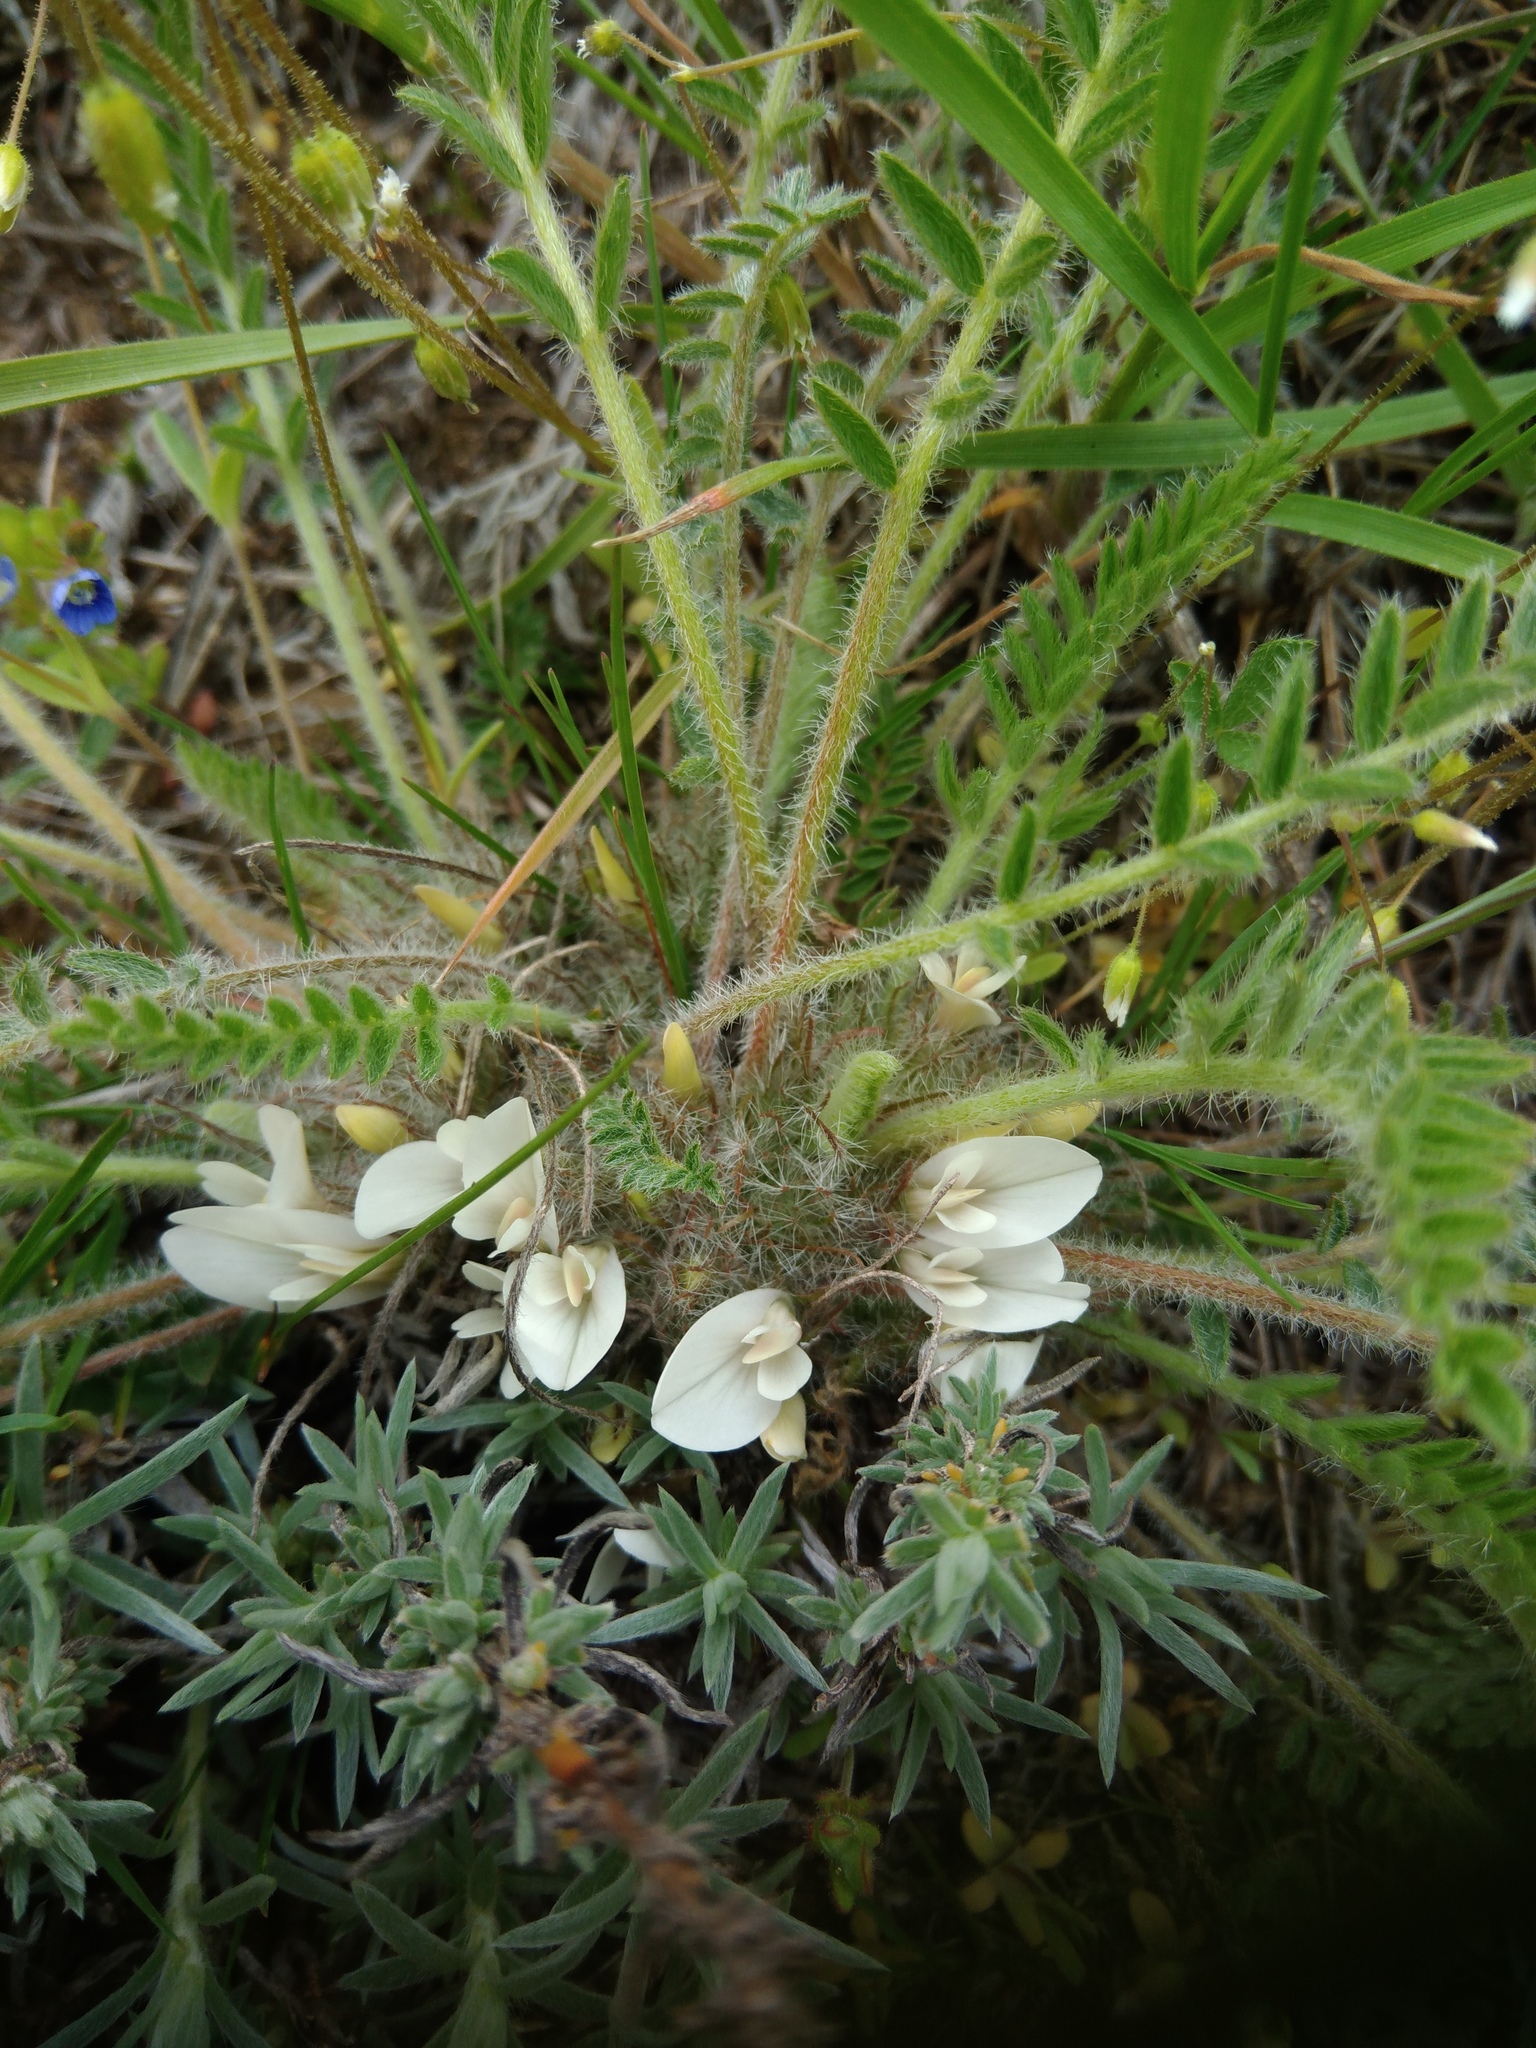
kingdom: Plantae
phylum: Tracheophyta
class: Magnoliopsida
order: Fabales
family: Fabaceae
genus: Astragalus
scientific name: Astragalus dolichophyllus
